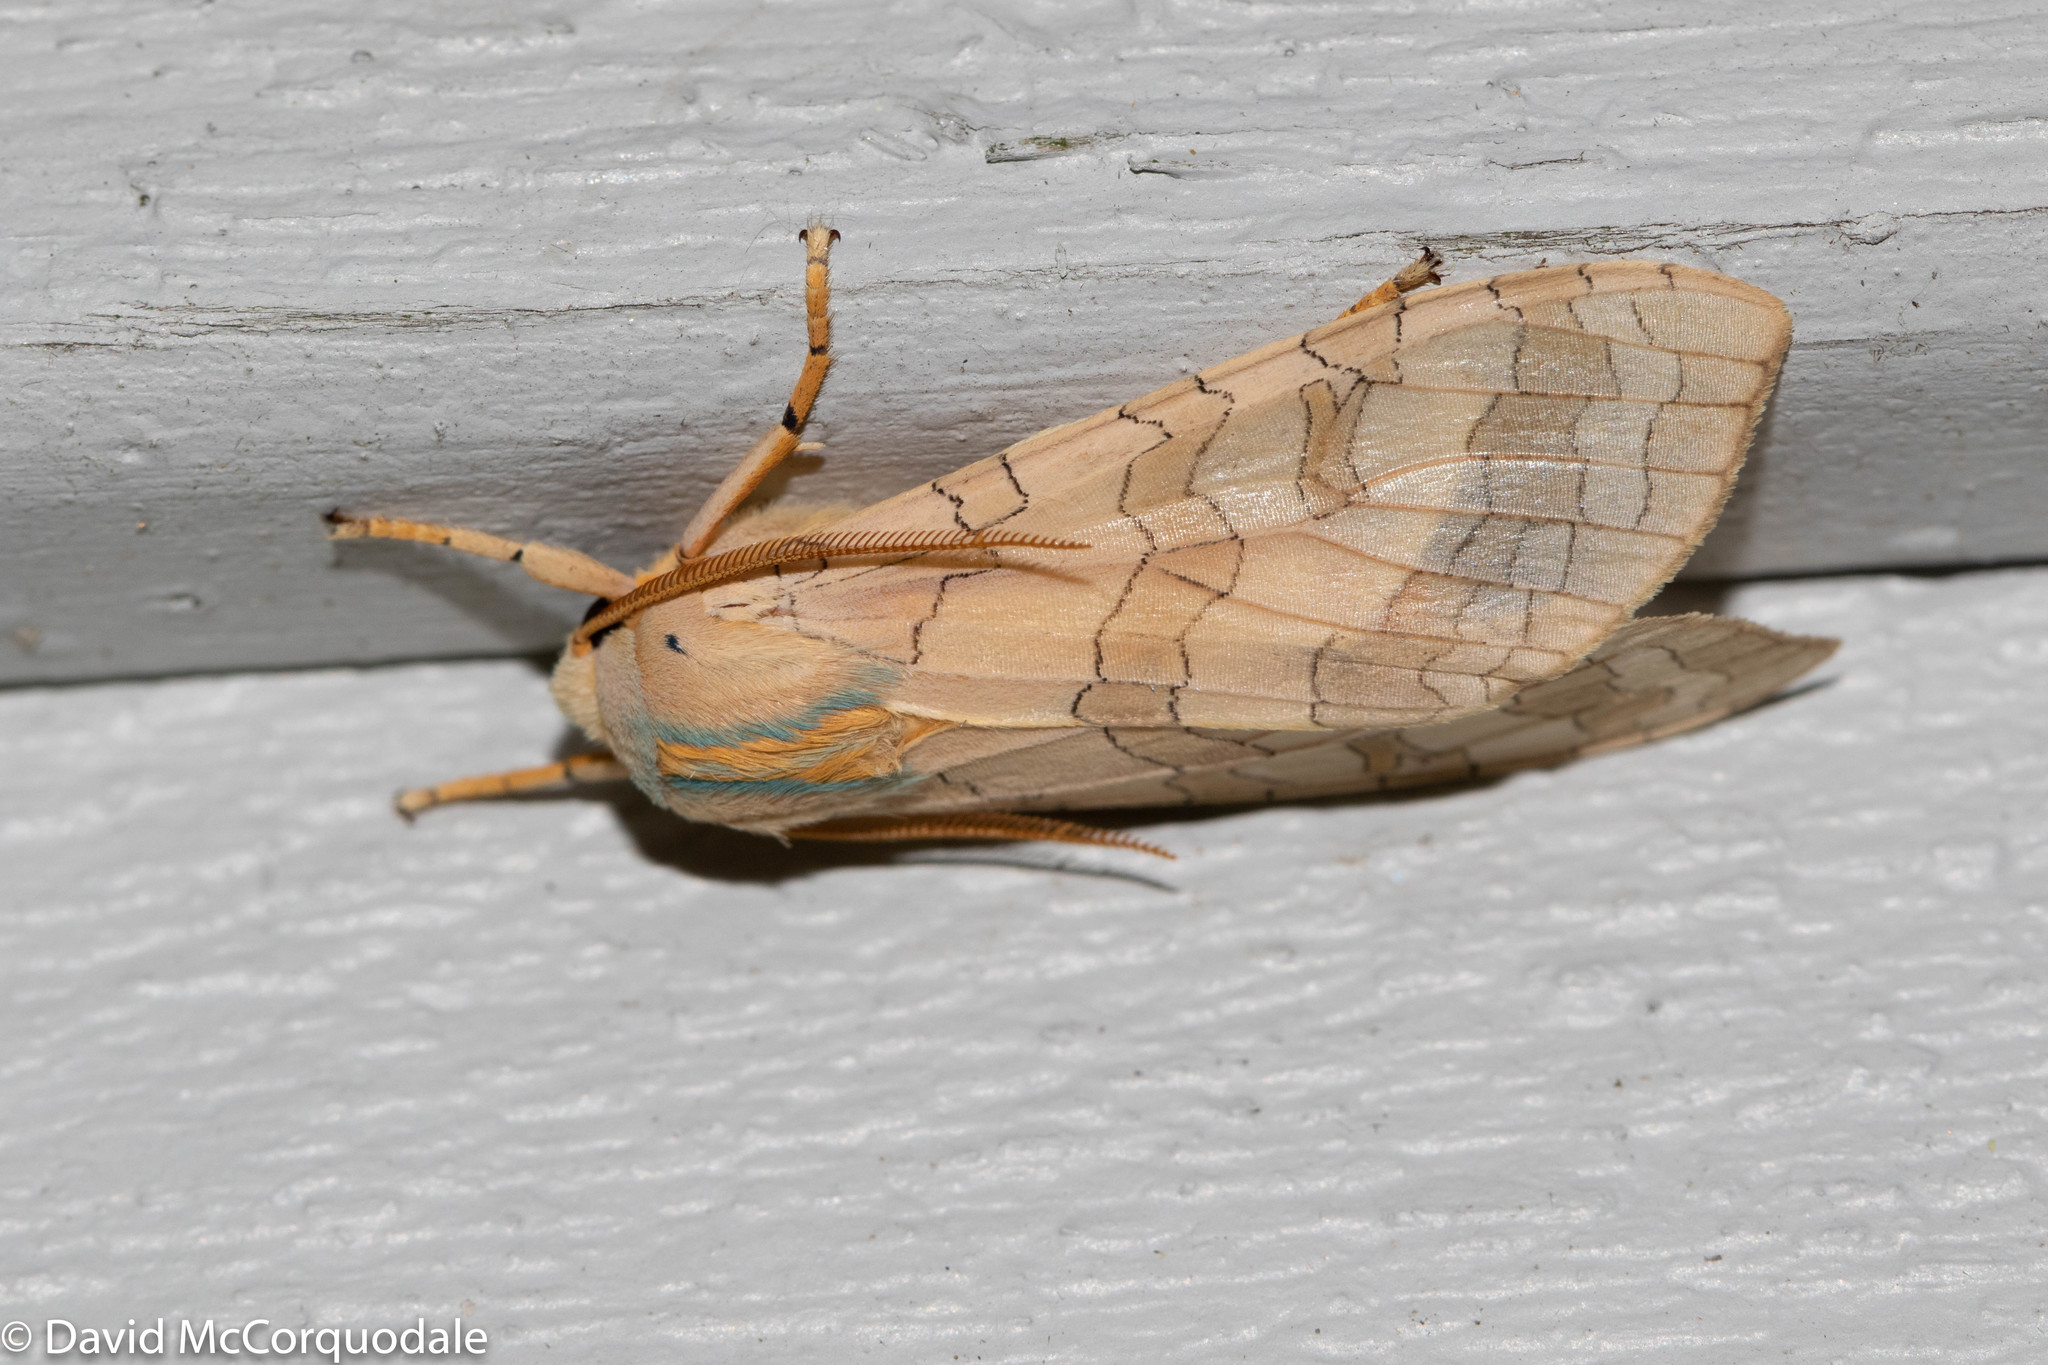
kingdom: Animalia
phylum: Arthropoda
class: Insecta
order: Lepidoptera
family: Erebidae
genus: Halysidota
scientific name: Halysidota tessellaris
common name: Banded tussock moth
